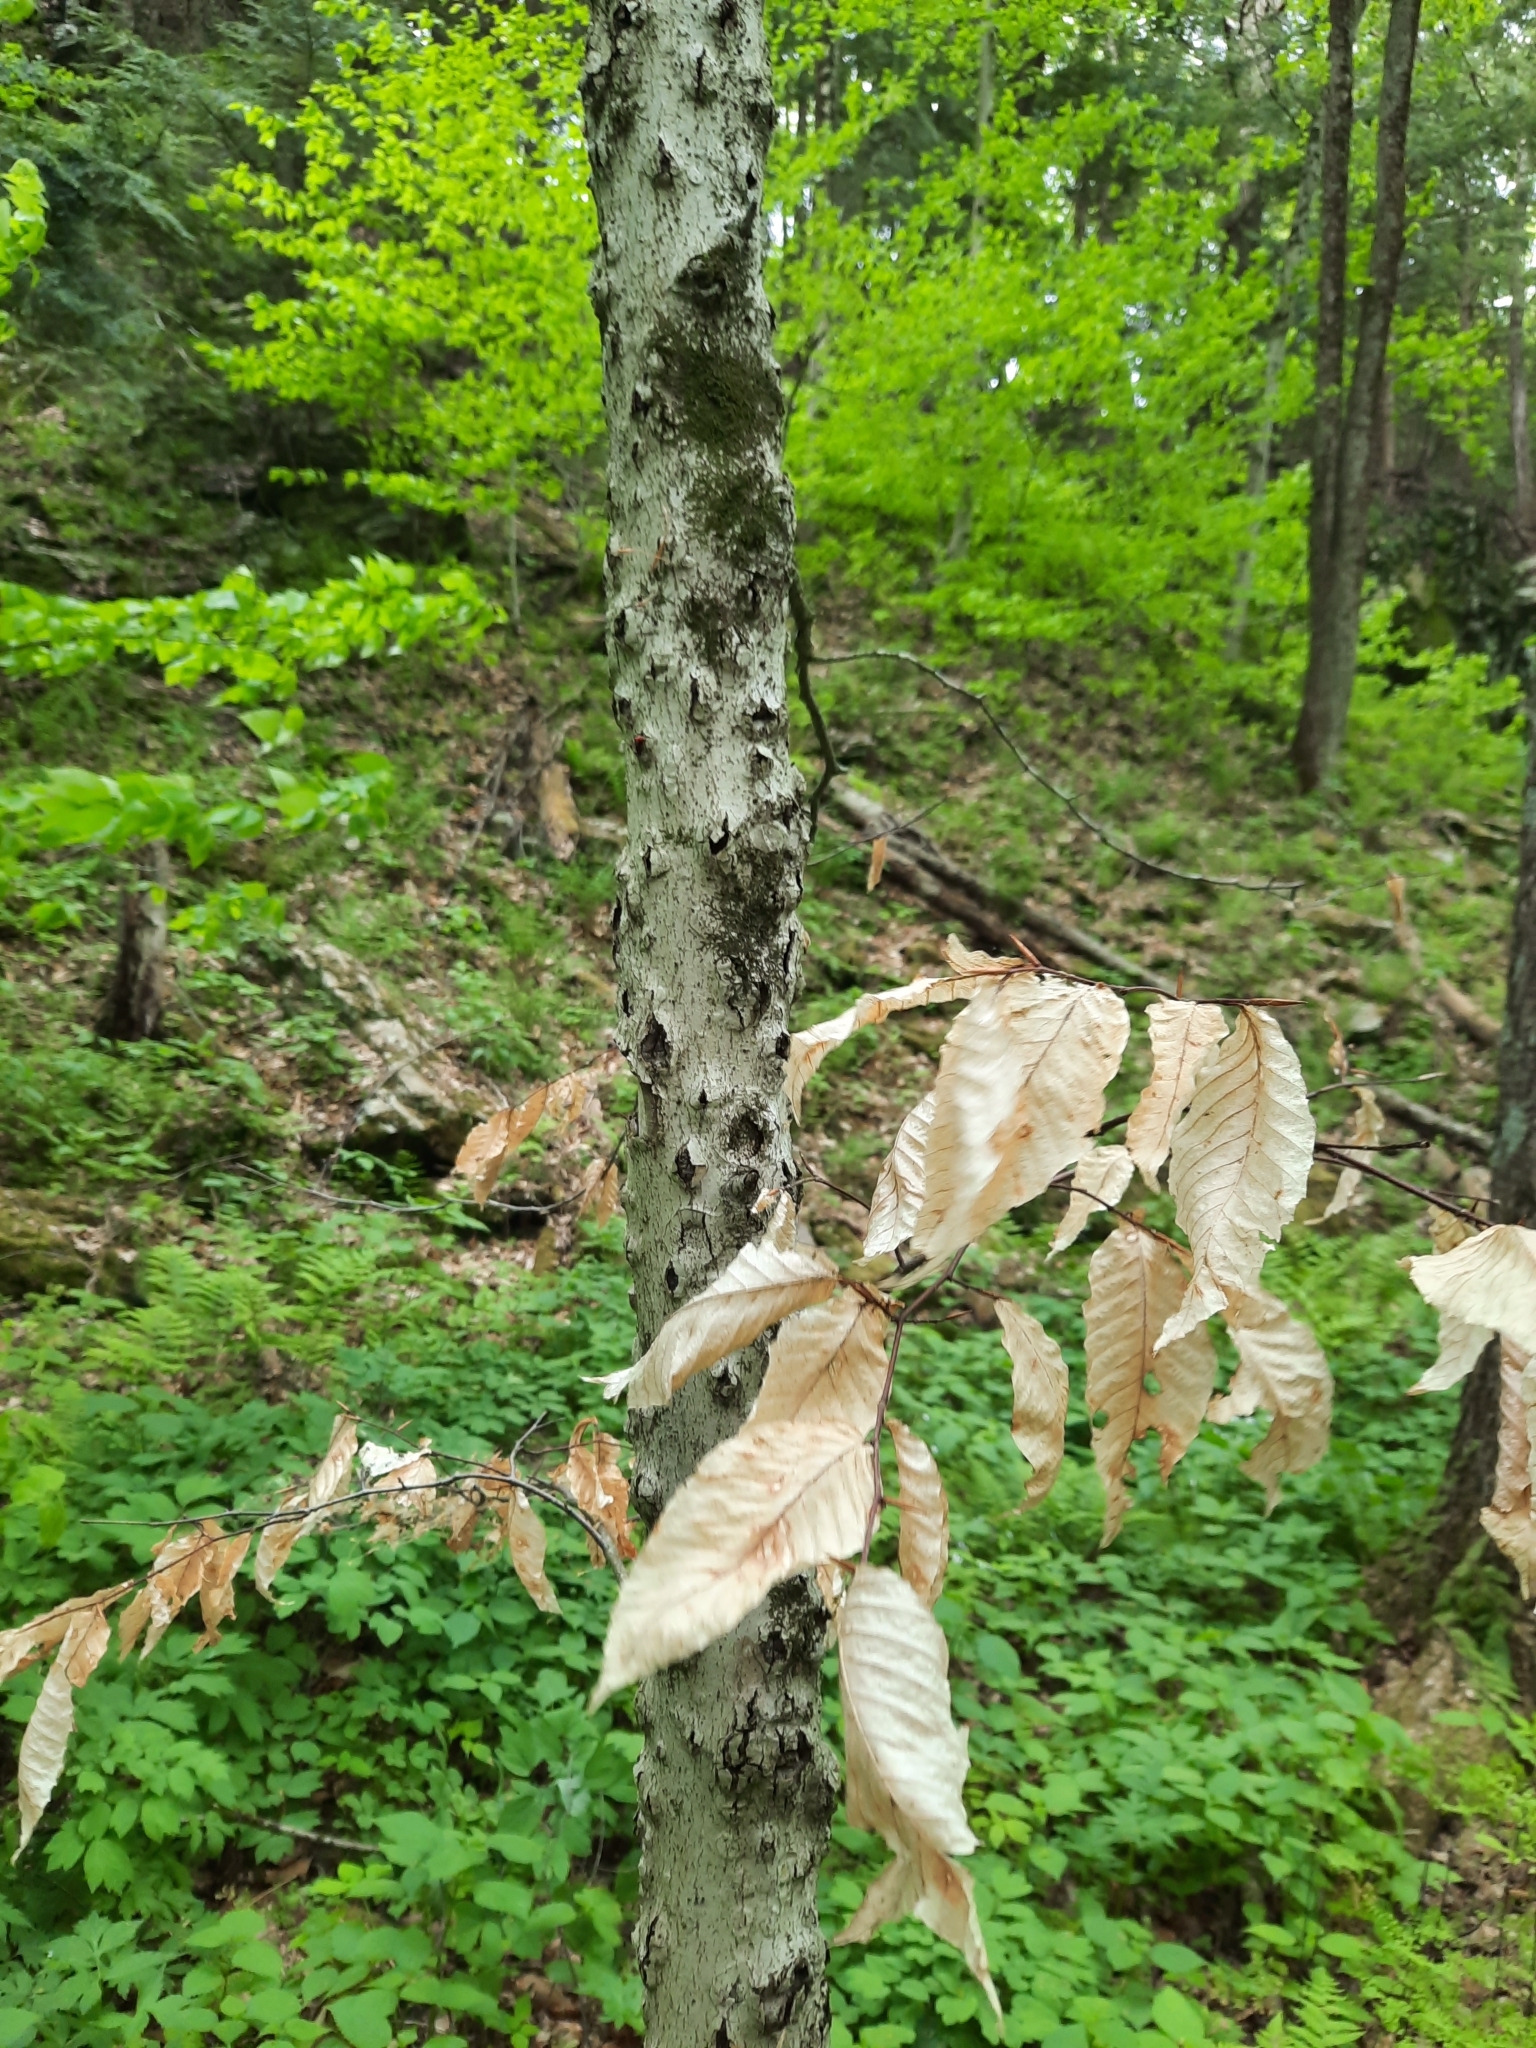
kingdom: Fungi
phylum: Ascomycota
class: Sordariomycetes
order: Hypocreales
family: Nectriaceae
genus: Neonectria
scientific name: Neonectria faginata
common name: Beech bark canker
